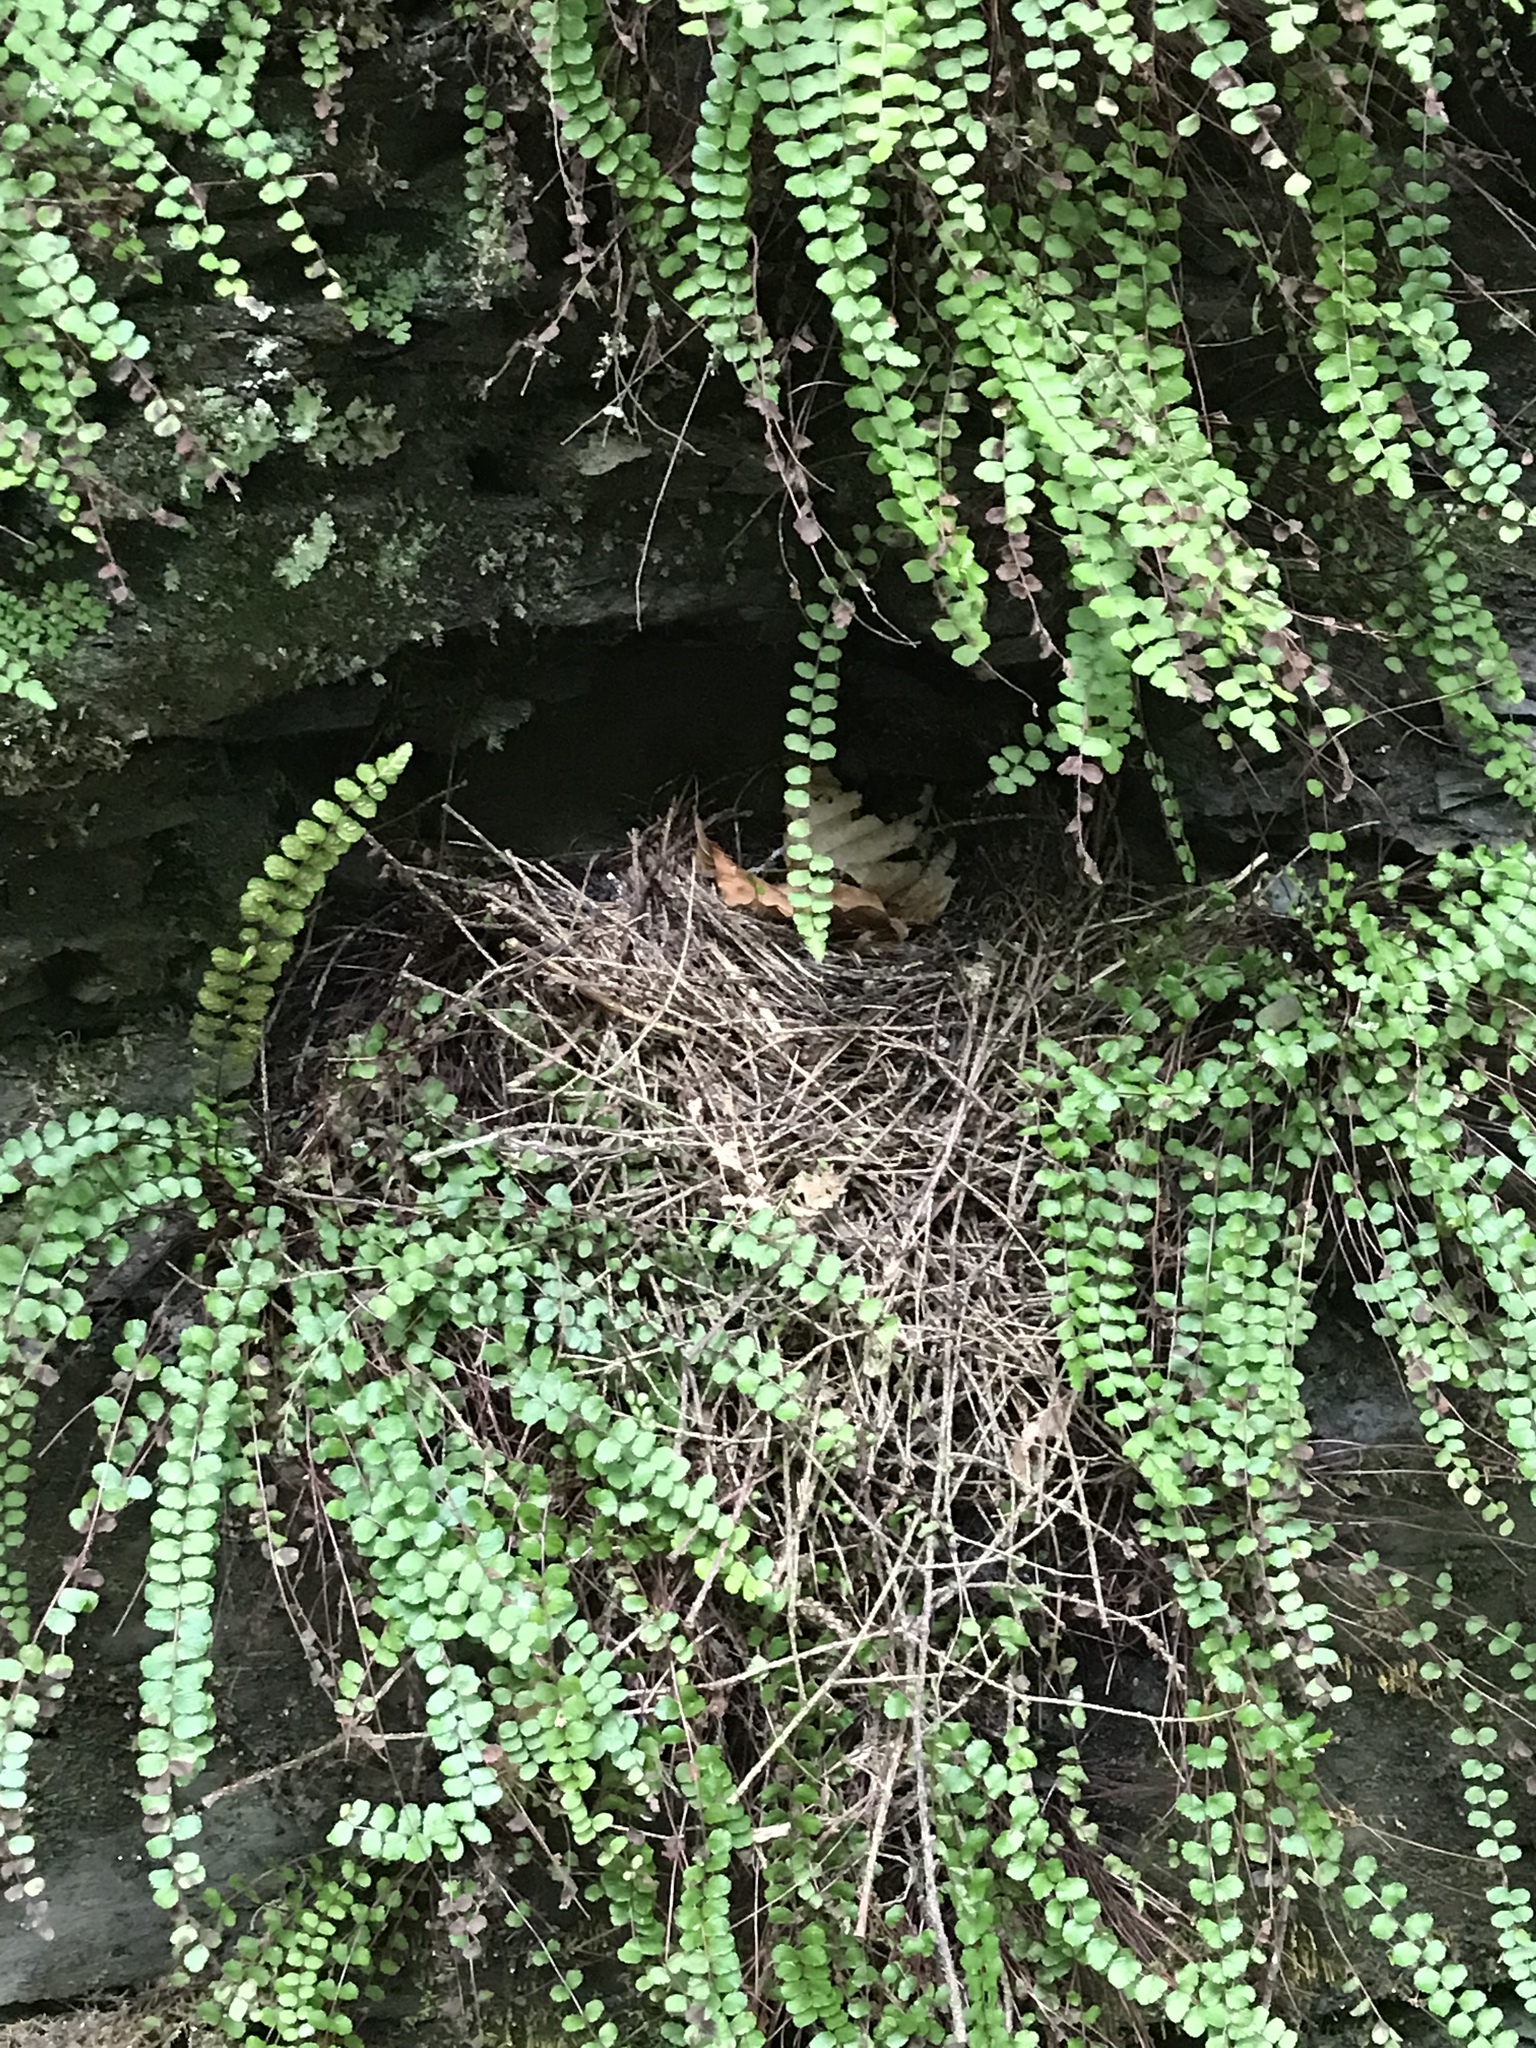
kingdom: Animalia
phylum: Chordata
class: Aves
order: Passeriformes
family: Parulidae
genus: Parkesia
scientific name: Parkesia motacilla
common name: Louisiana waterthrush
